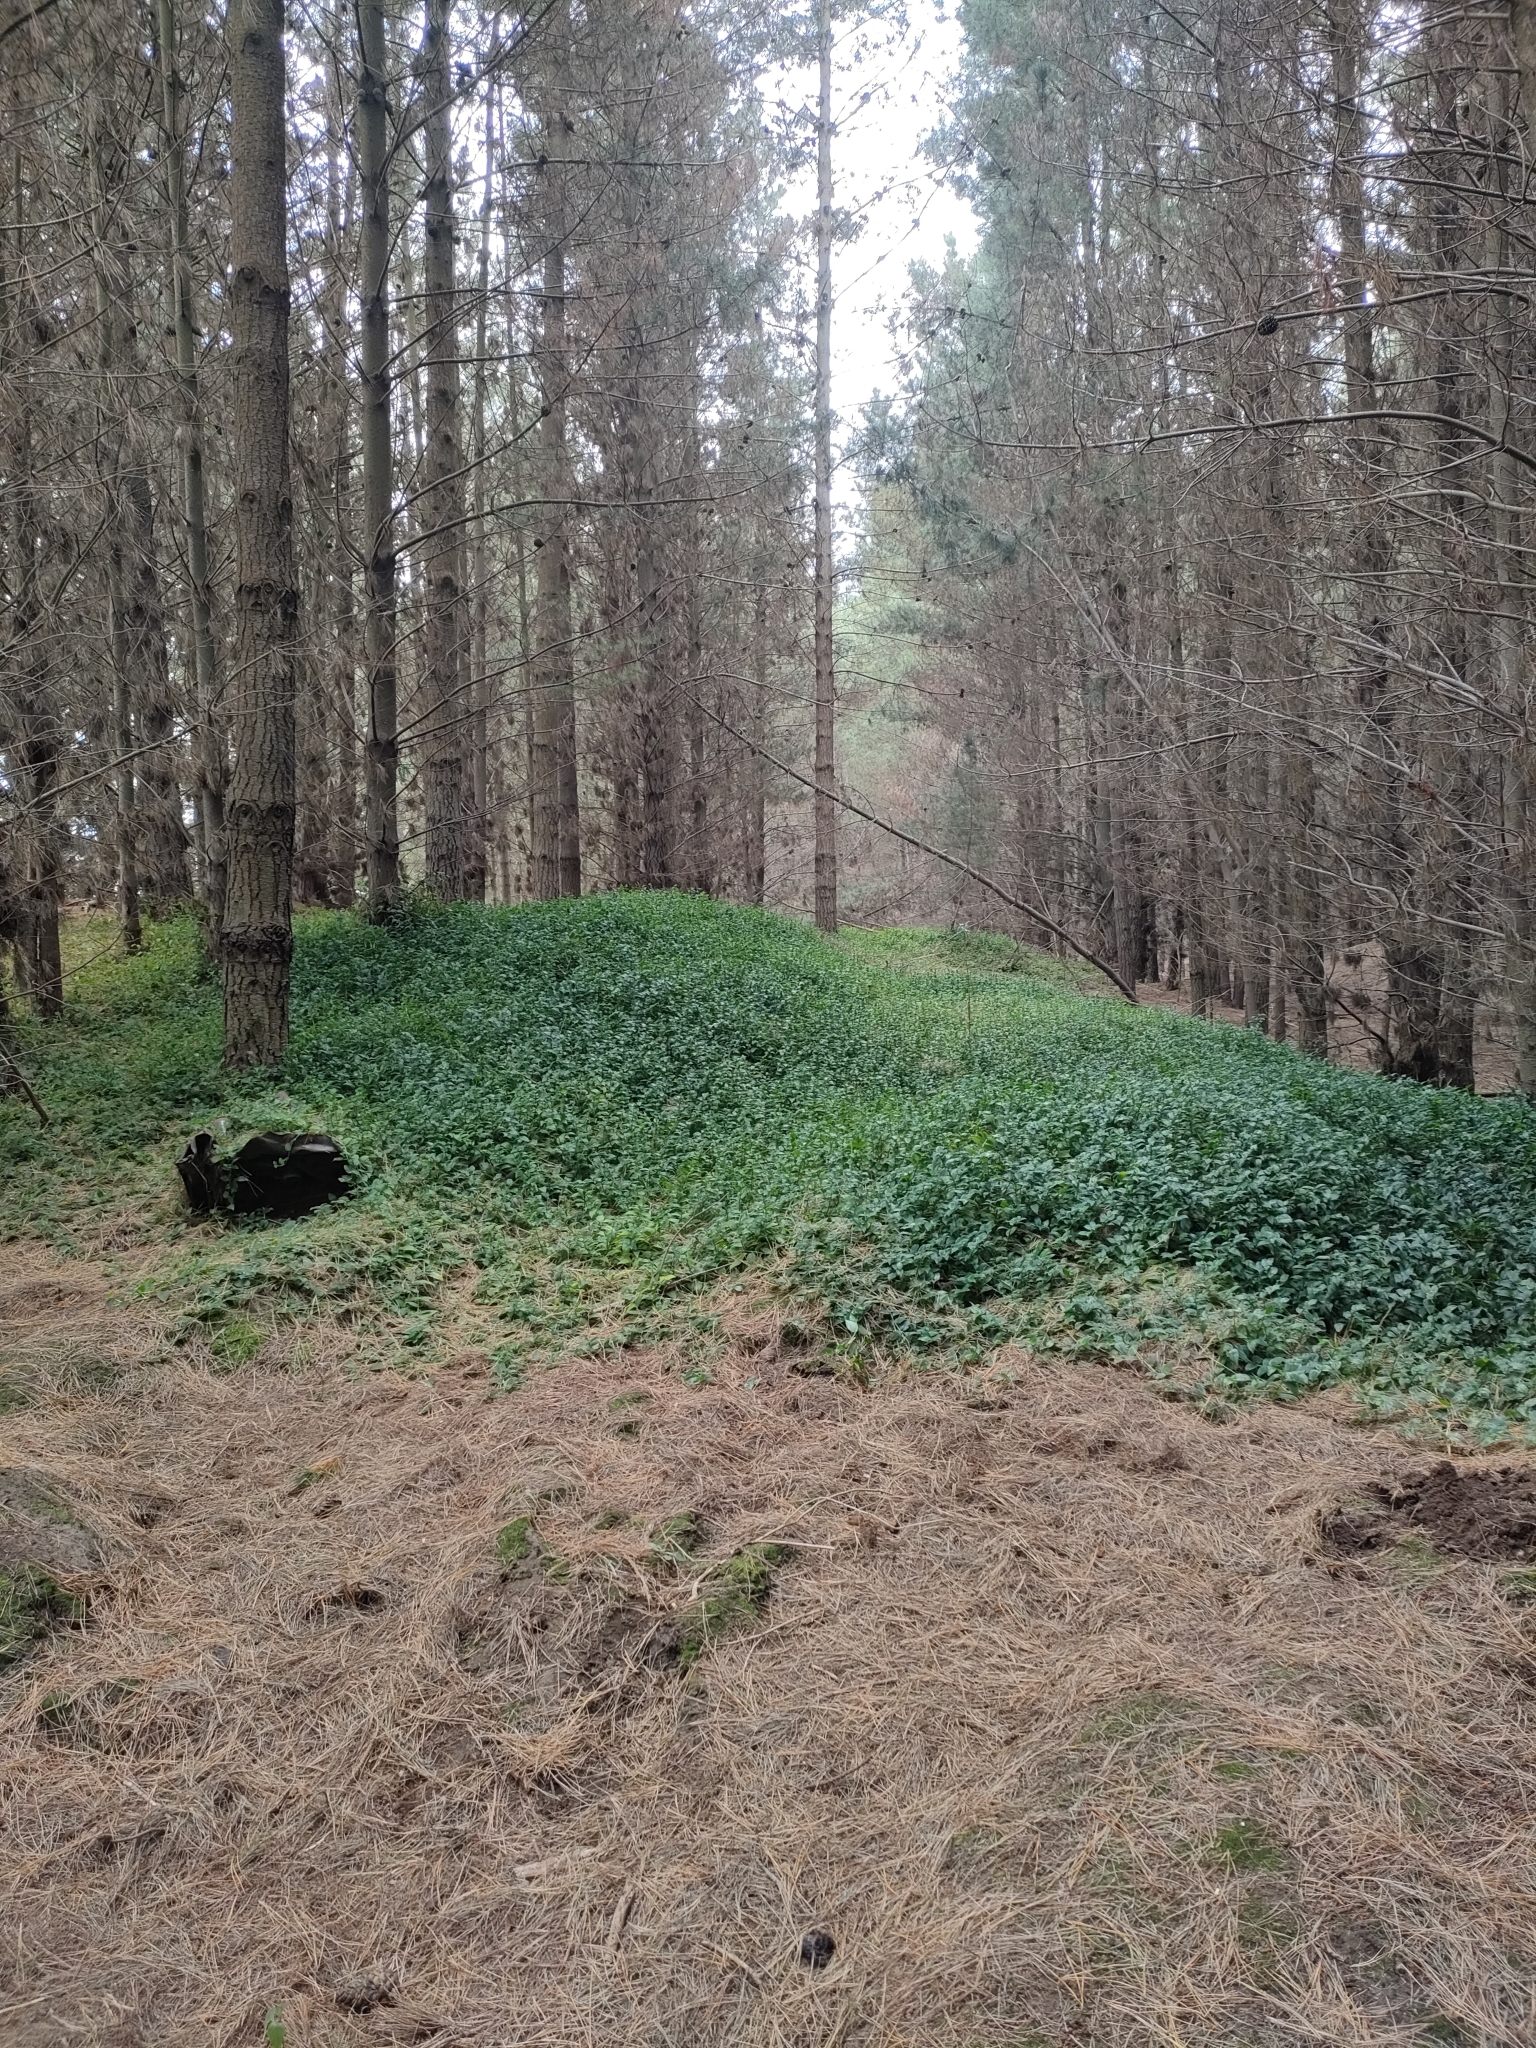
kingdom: Plantae
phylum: Tracheophyta
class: Liliopsida
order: Commelinales
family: Commelinaceae
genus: Tradescantia
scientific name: Tradescantia fluminensis
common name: Wandering-jew
